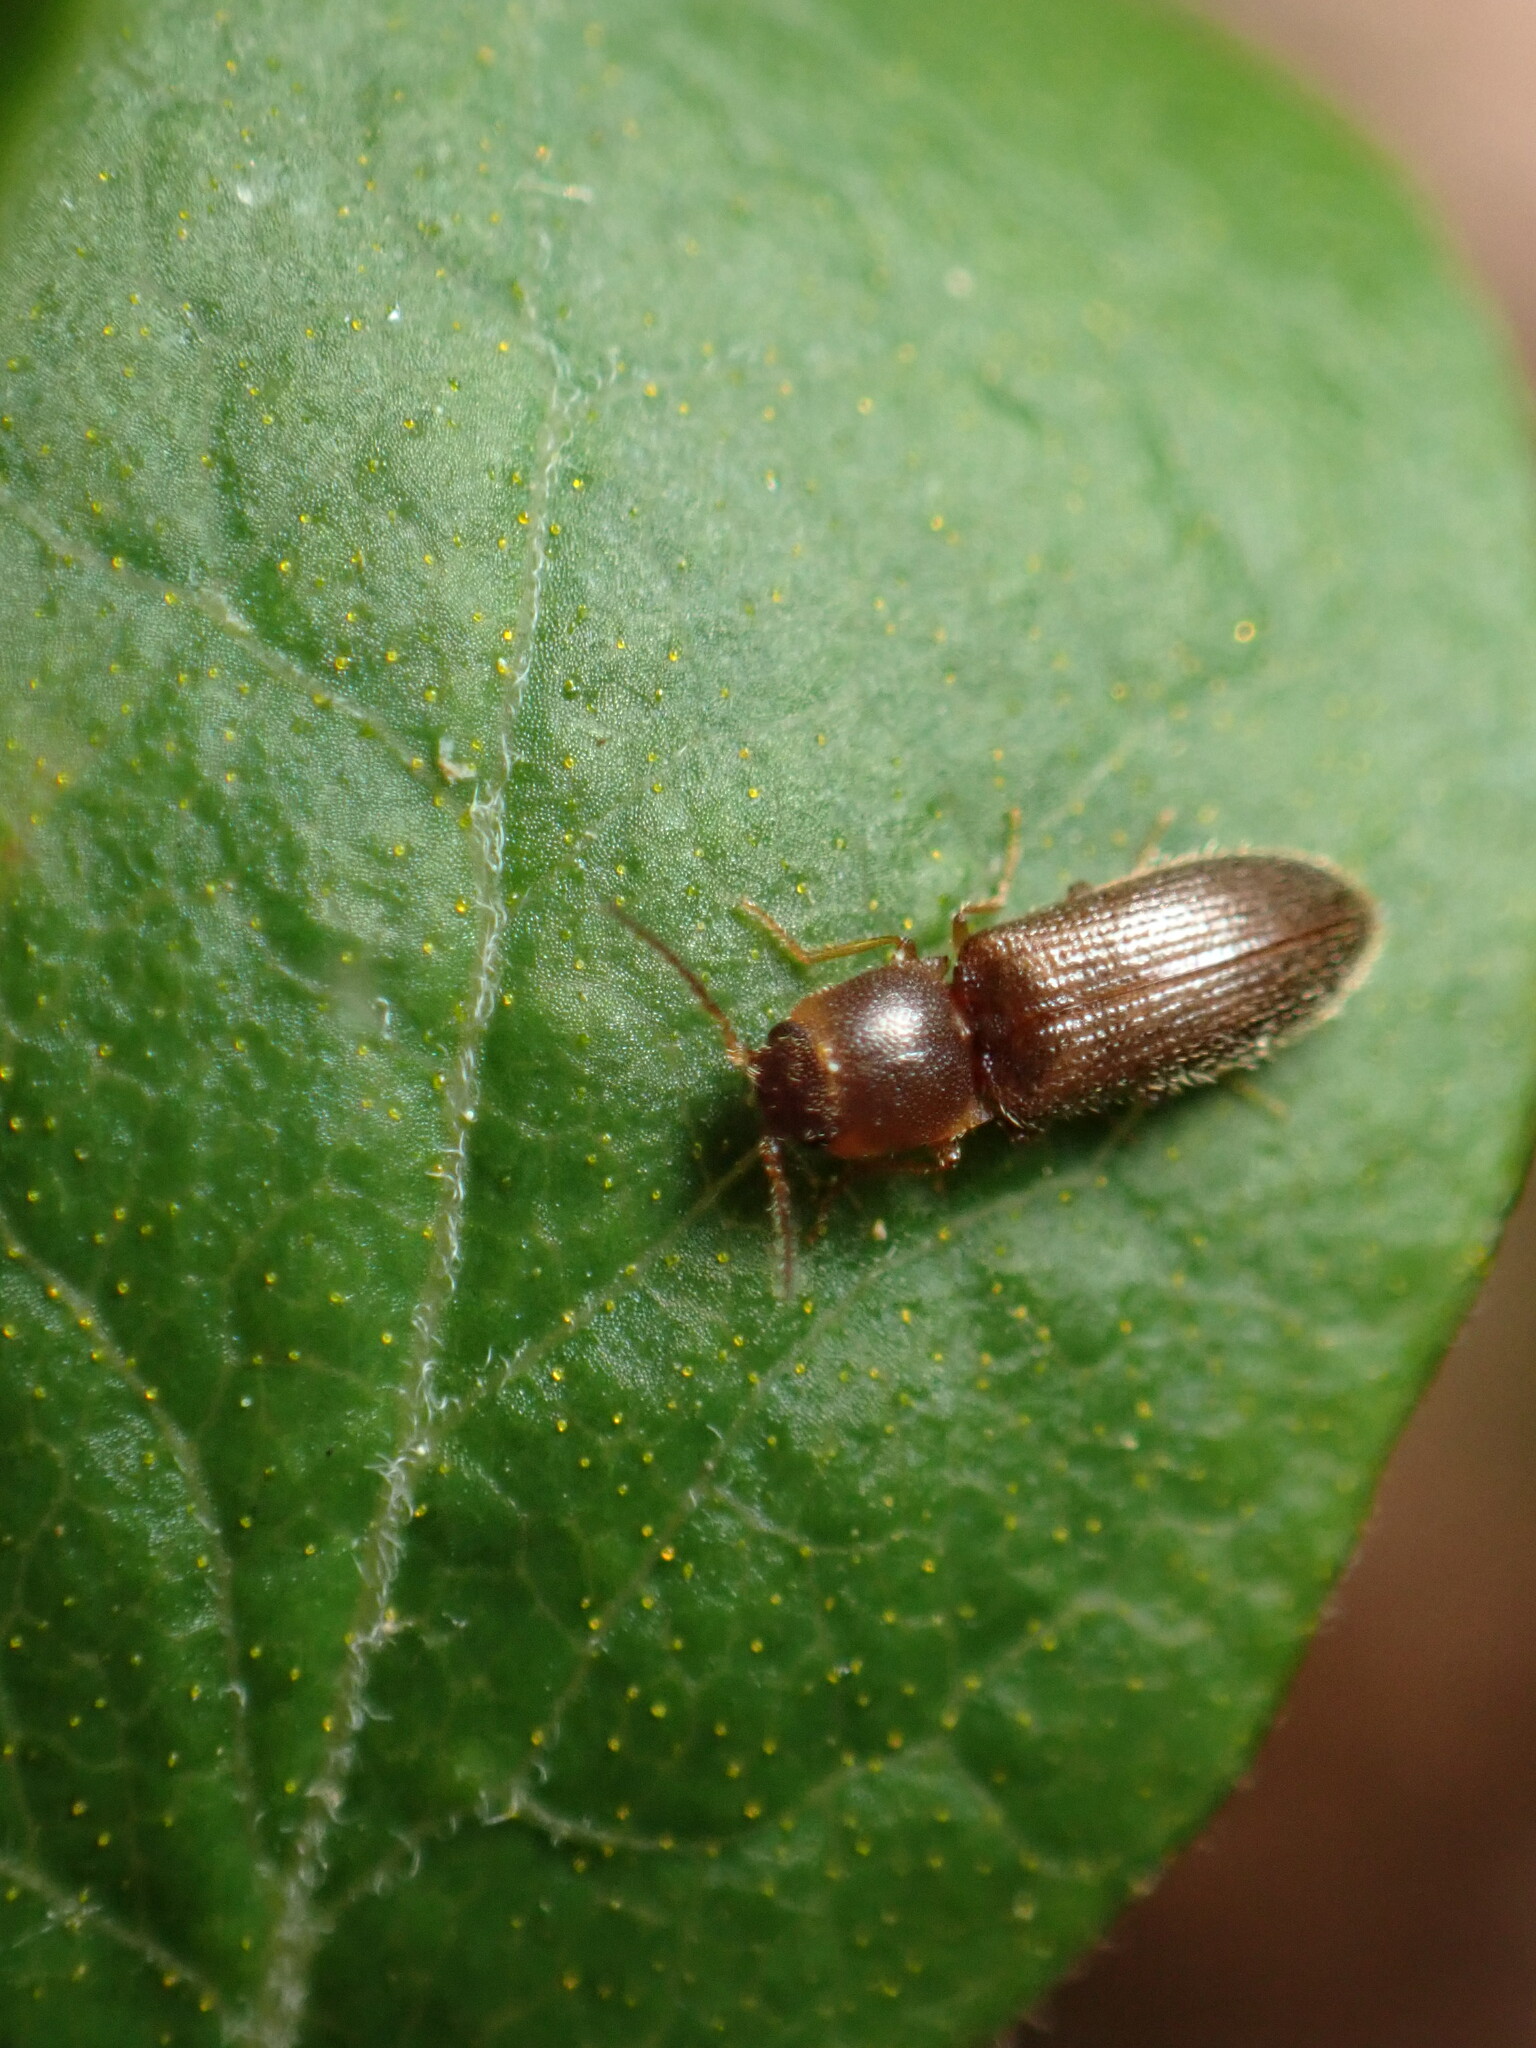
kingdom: Animalia
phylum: Arthropoda
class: Insecta
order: Coleoptera
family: Elateridae
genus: Tetralimonius
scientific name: Tetralimonius
